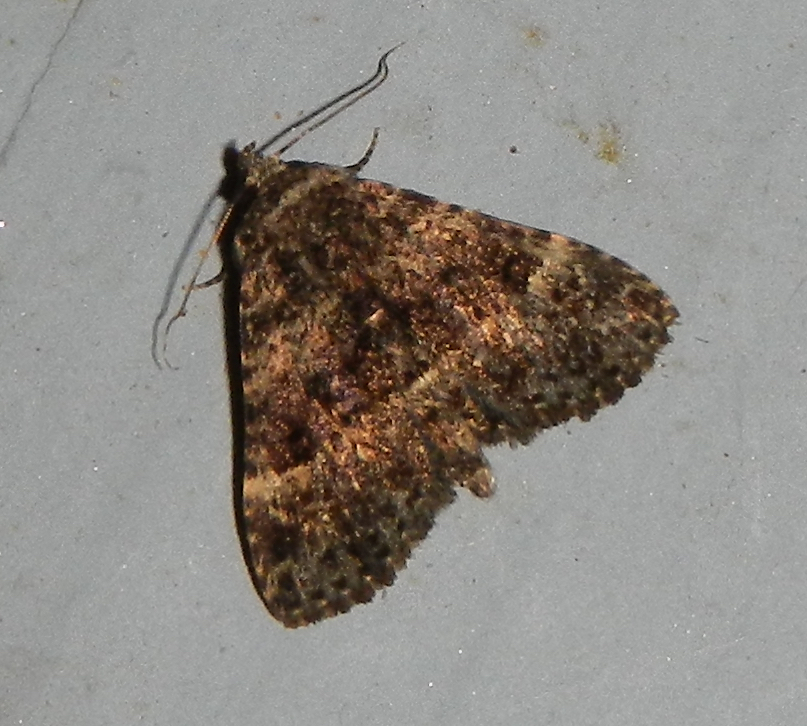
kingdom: Animalia
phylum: Arthropoda
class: Insecta
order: Lepidoptera
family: Erebidae
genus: Metalectra
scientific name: Metalectra discalis
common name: Common fungus moth
